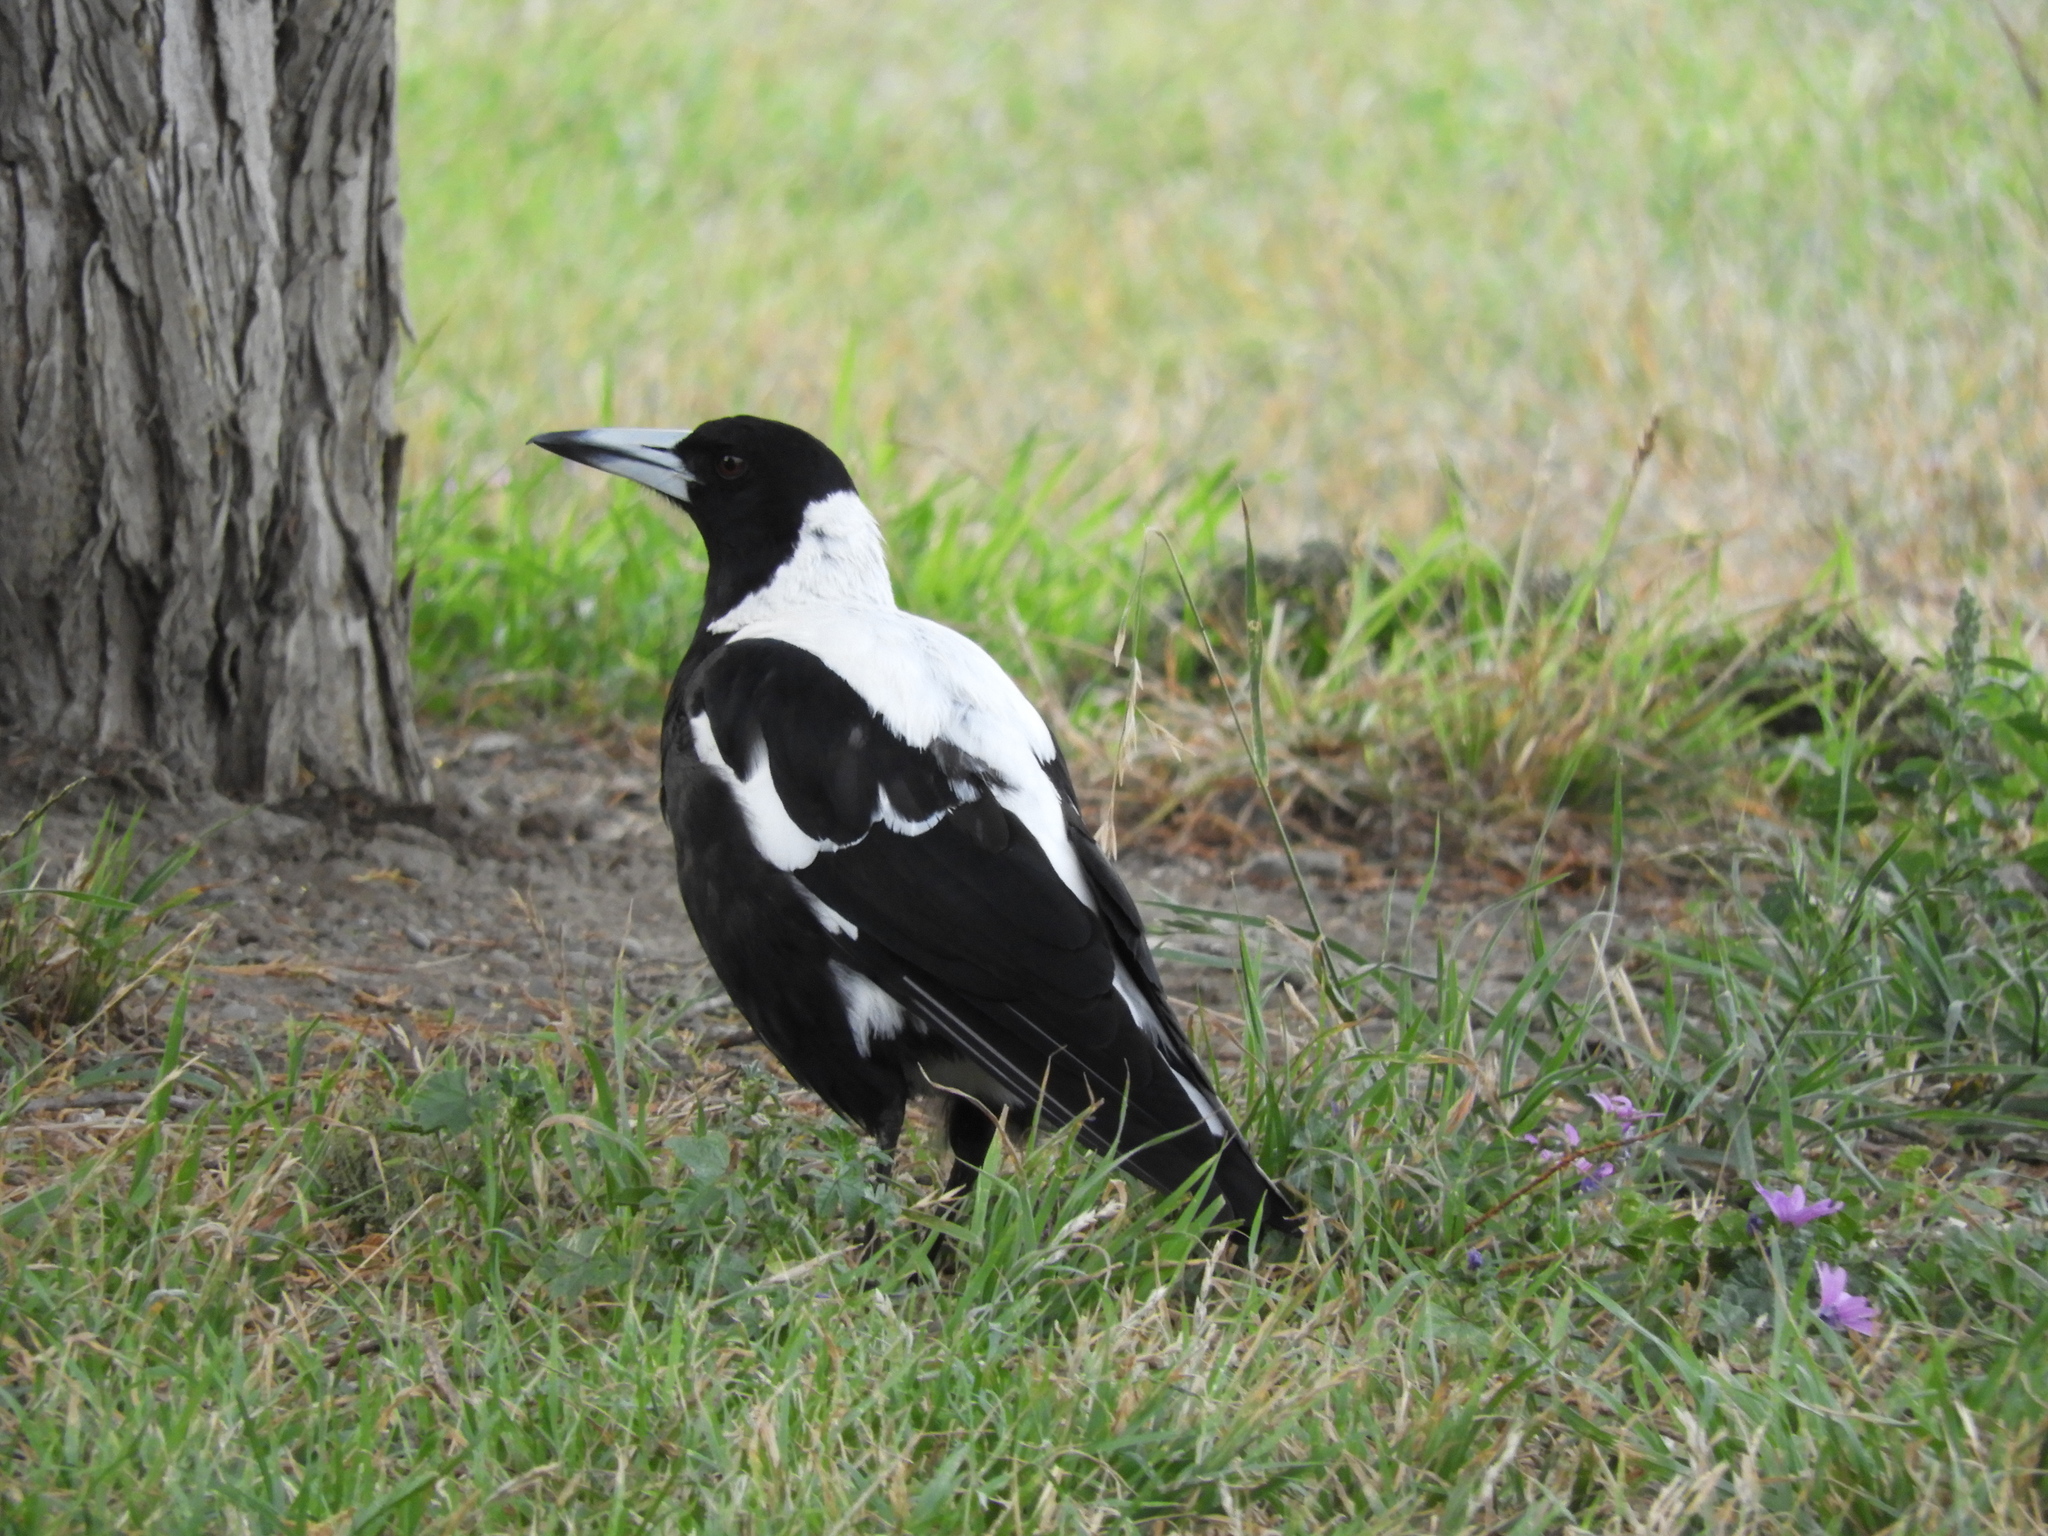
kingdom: Animalia
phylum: Chordata
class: Aves
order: Passeriformes
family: Cracticidae
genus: Gymnorhina
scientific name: Gymnorhina tibicen
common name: Australian magpie
